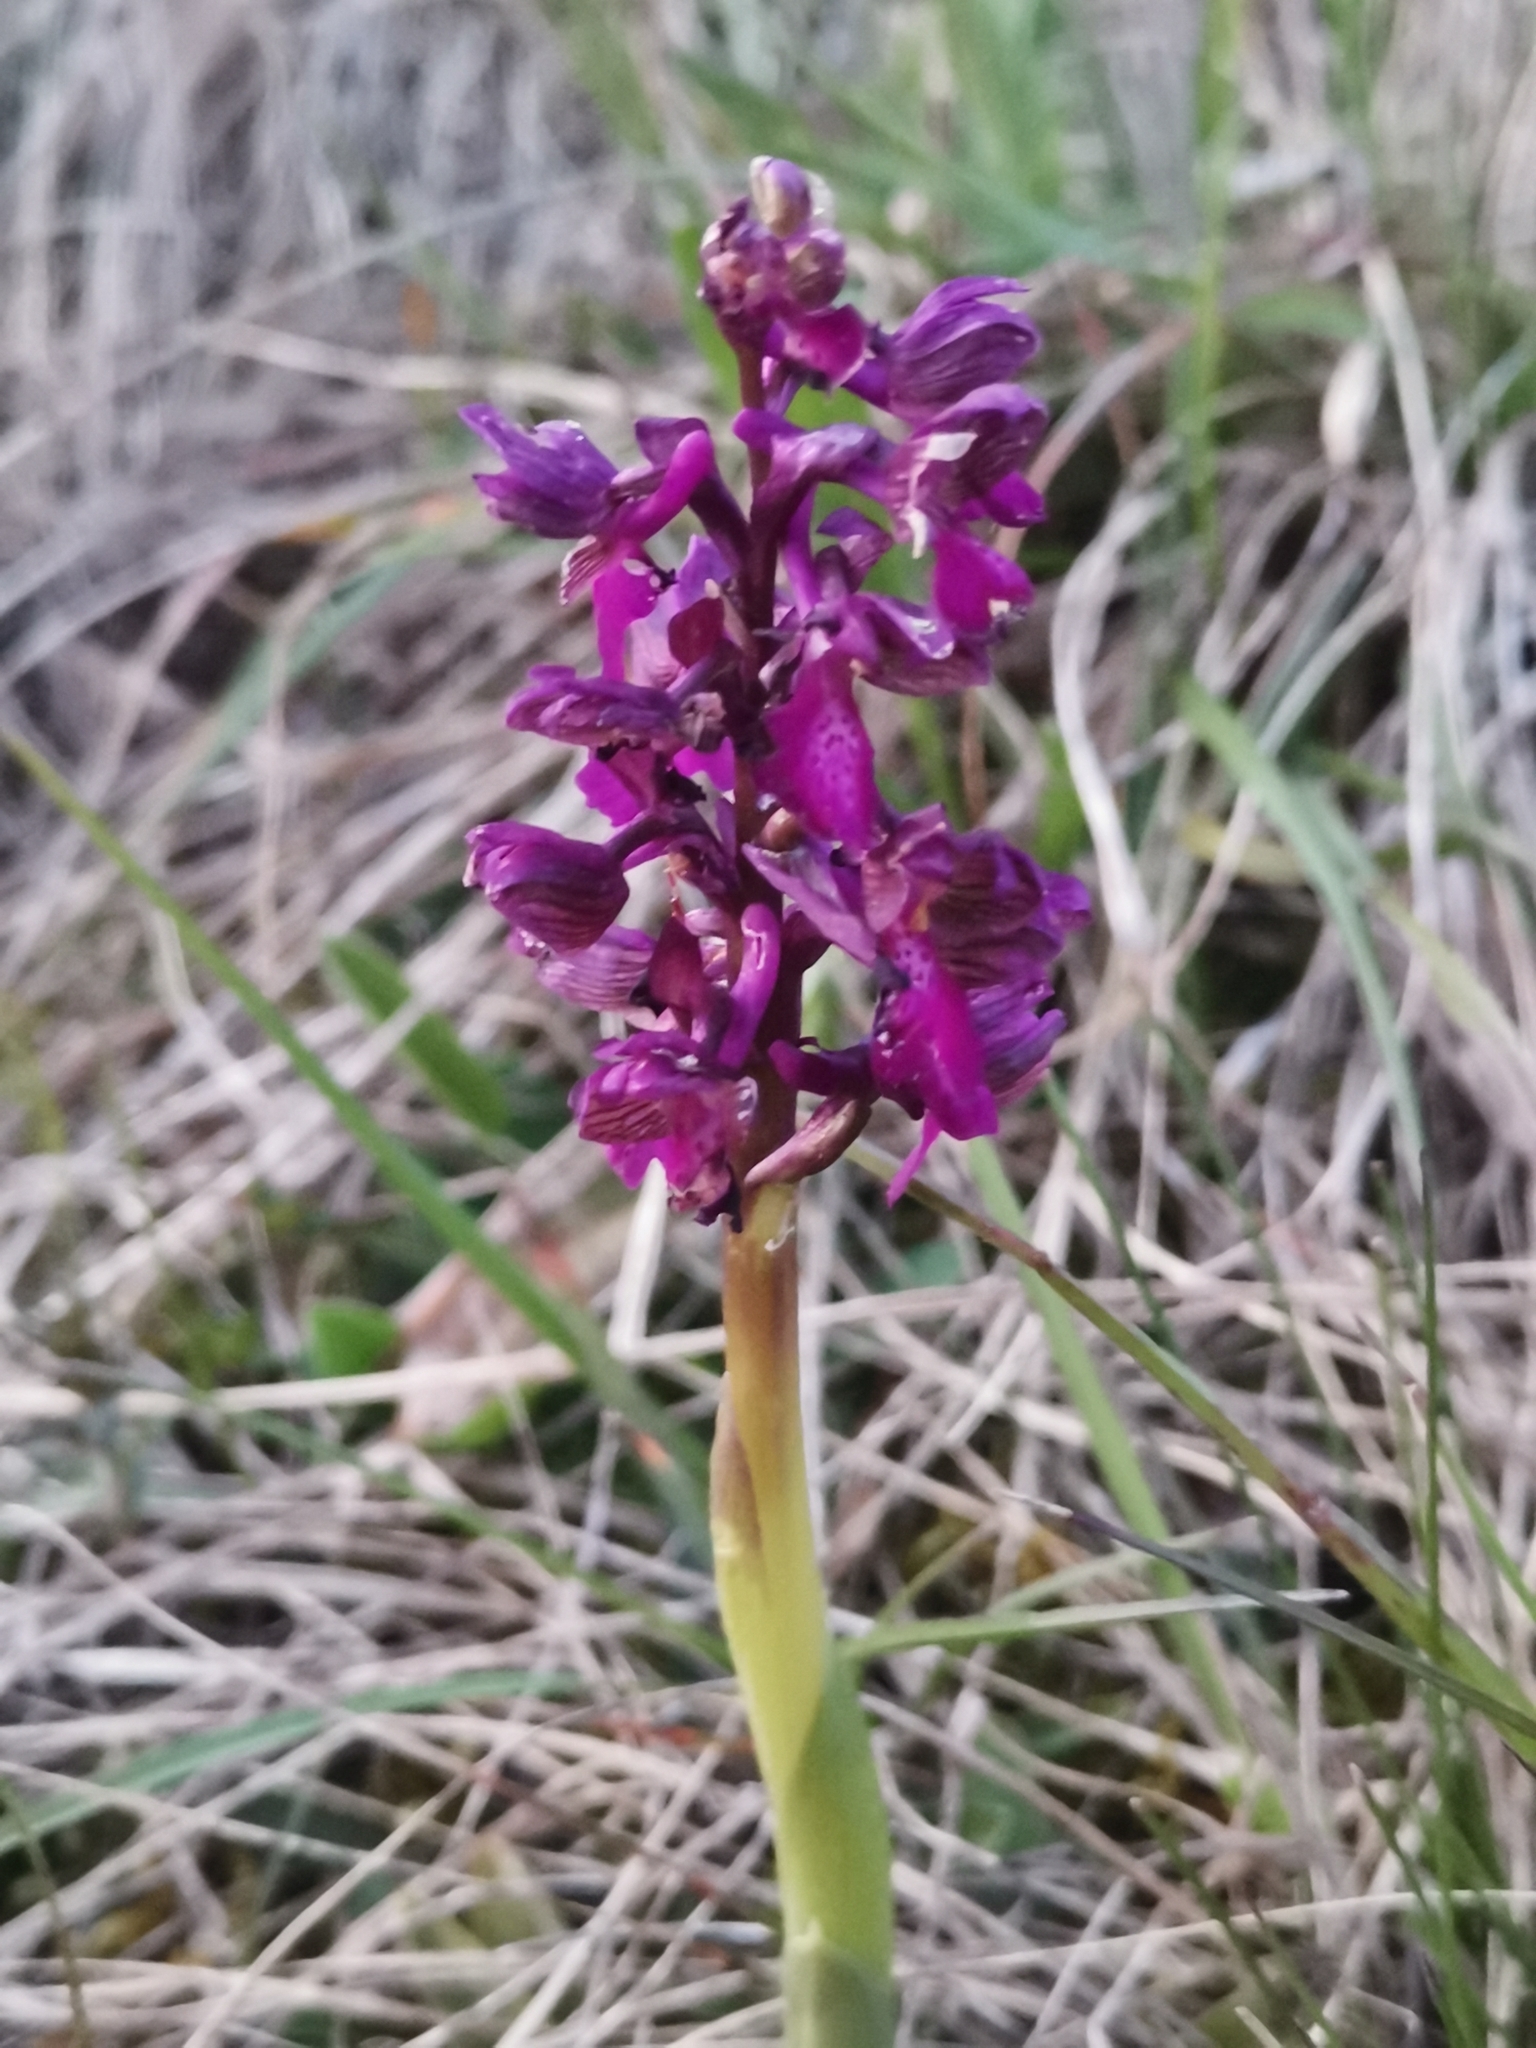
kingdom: Plantae
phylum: Tracheophyta
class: Liliopsida
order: Asparagales
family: Orchidaceae
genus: Anacamptis
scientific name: Anacamptis morio
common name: Green-winged orchid
